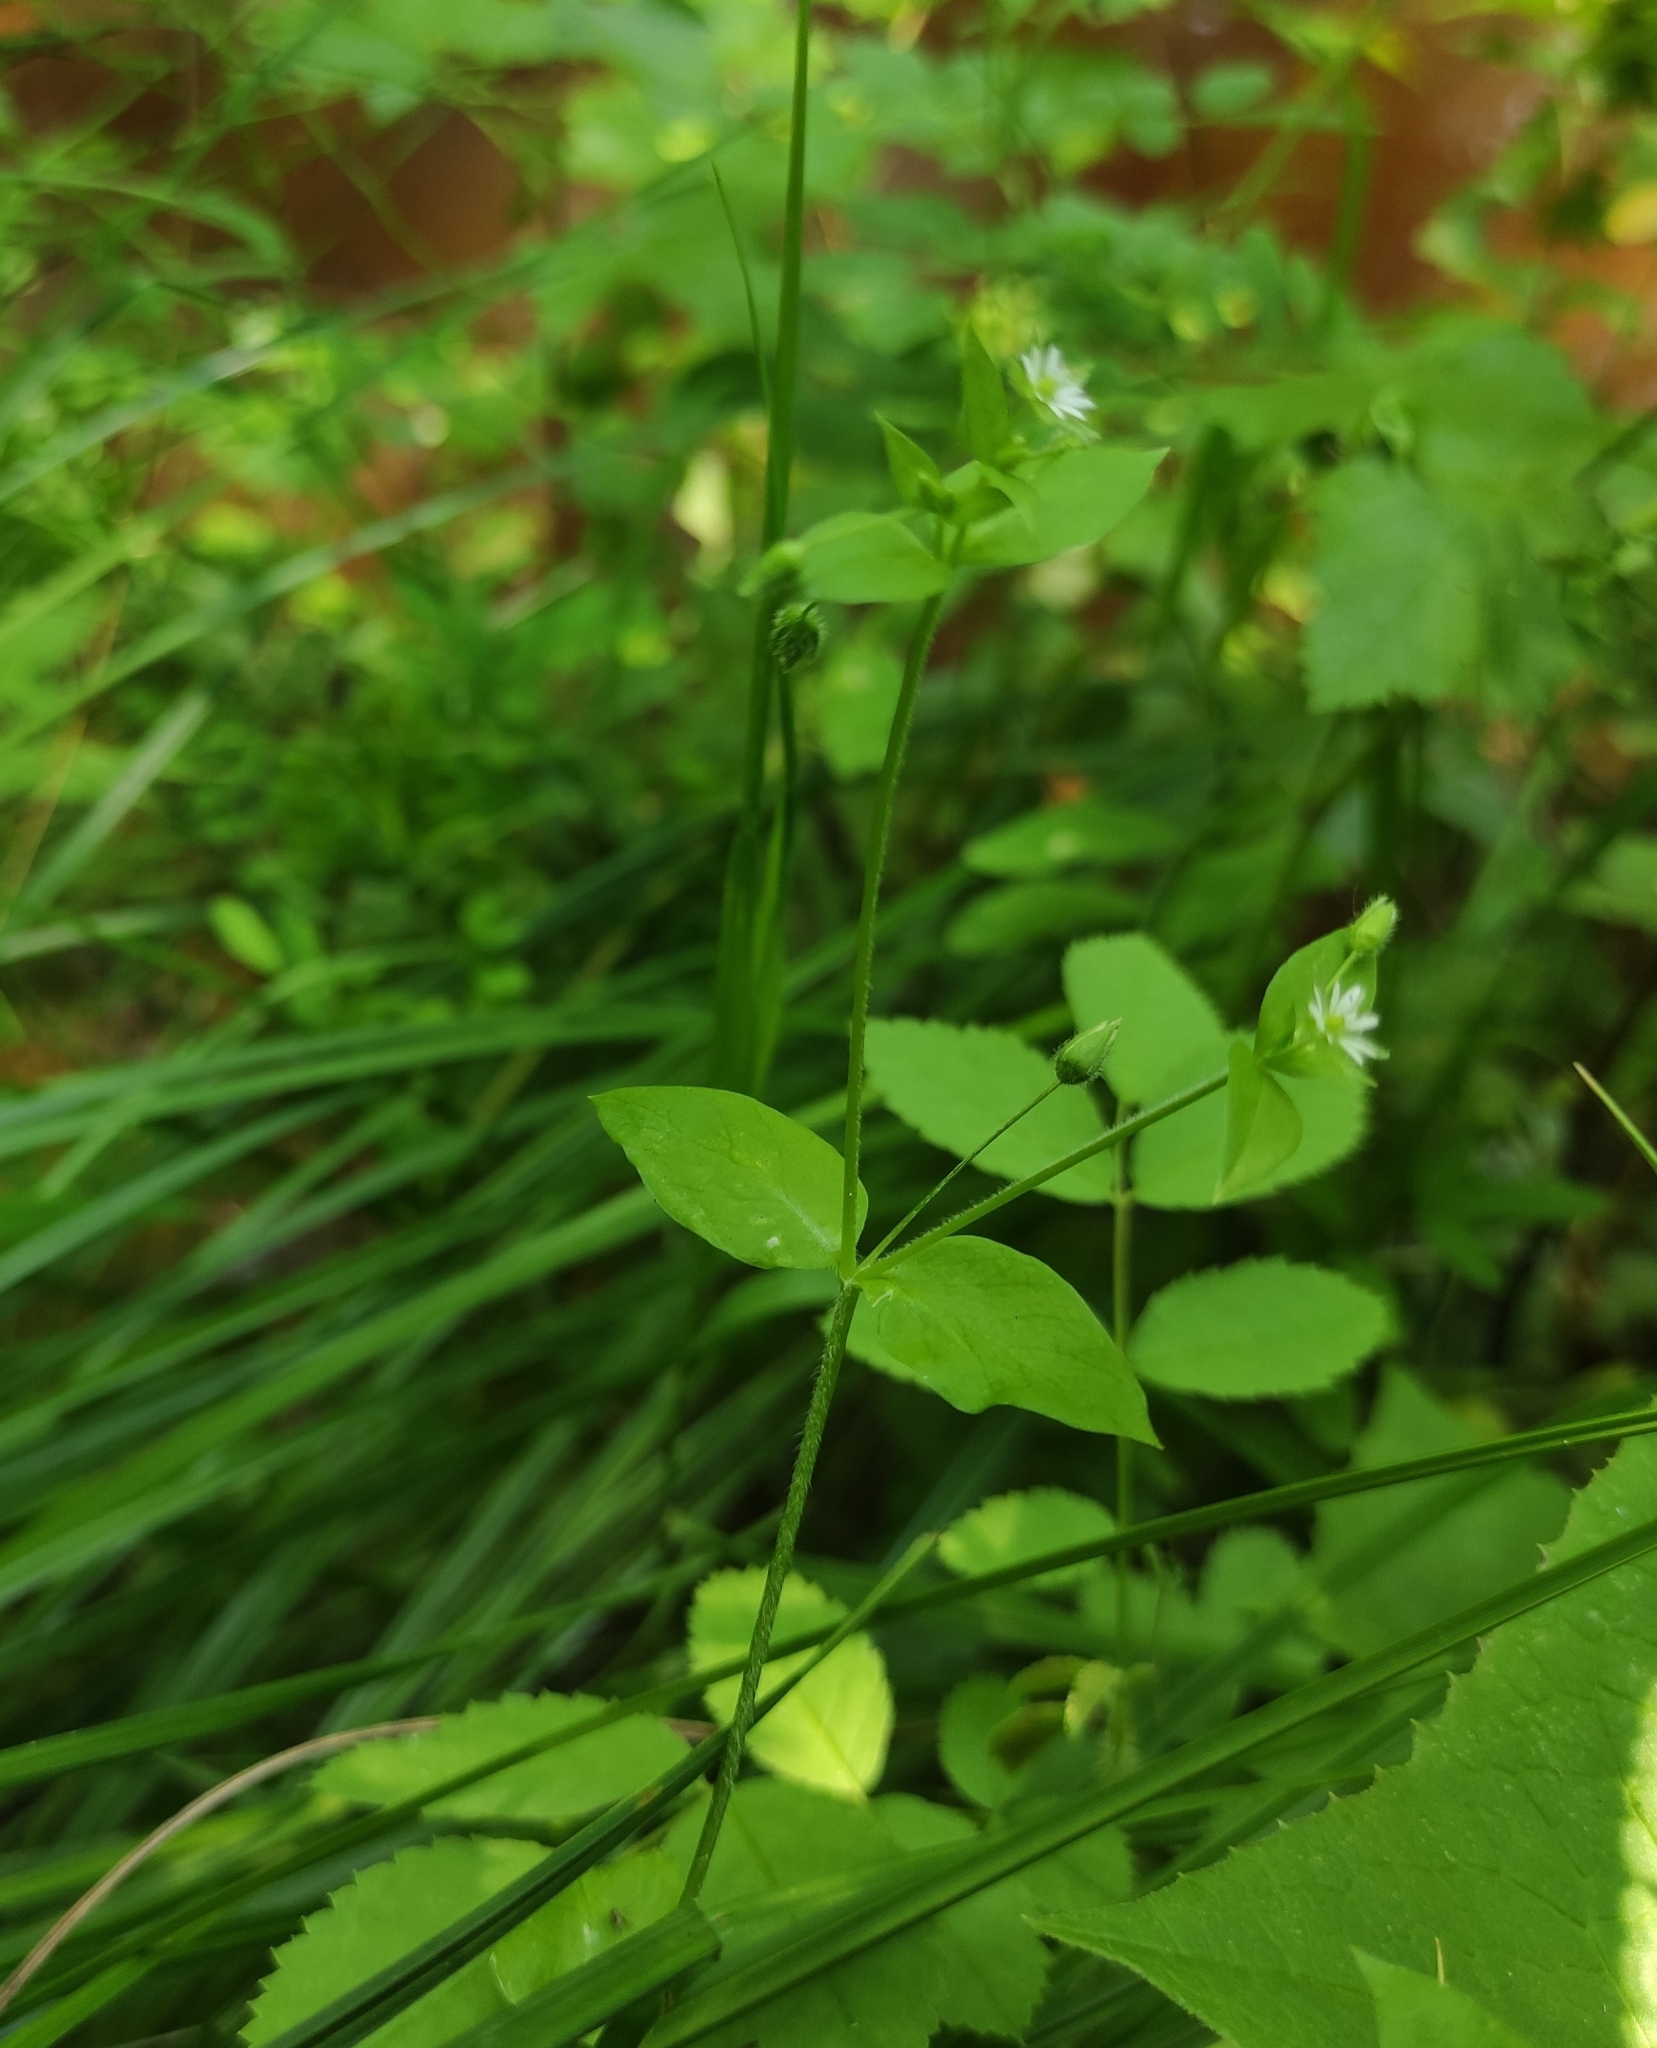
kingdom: Plantae
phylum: Tracheophyta
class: Magnoliopsida
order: Caryophyllales
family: Caryophyllaceae
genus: Stellaria
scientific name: Stellaria media
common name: Common chickweed
